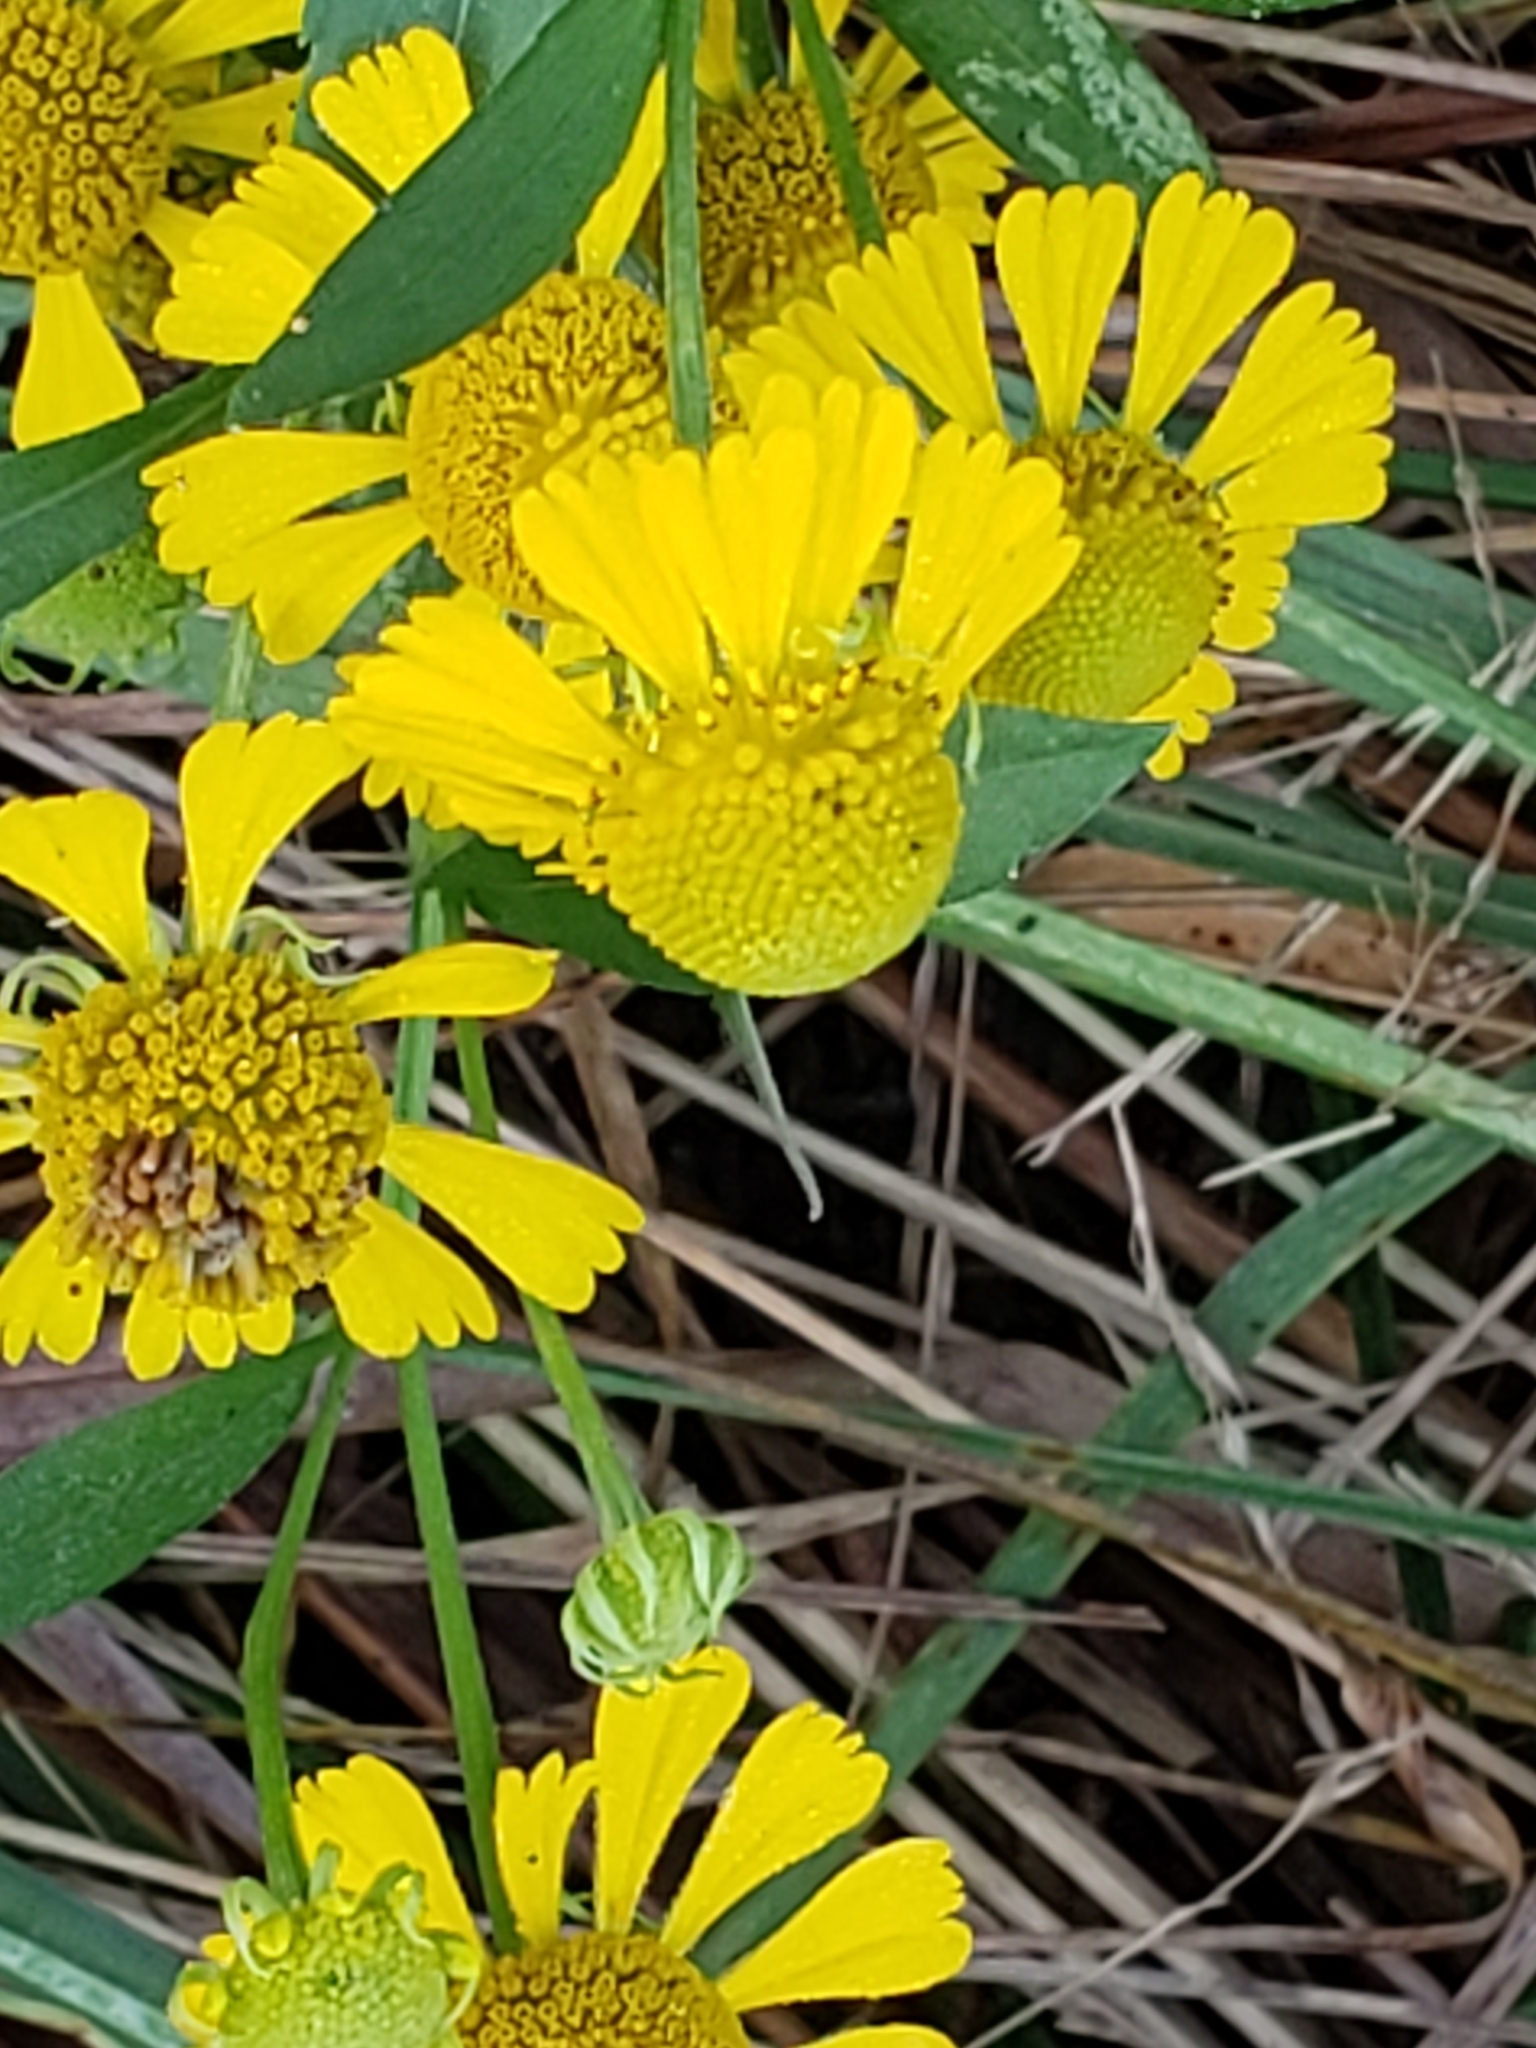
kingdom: Plantae
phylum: Tracheophyta
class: Magnoliopsida
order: Asterales
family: Asteraceae
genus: Helenium
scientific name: Helenium autumnale
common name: Sneezeweed
